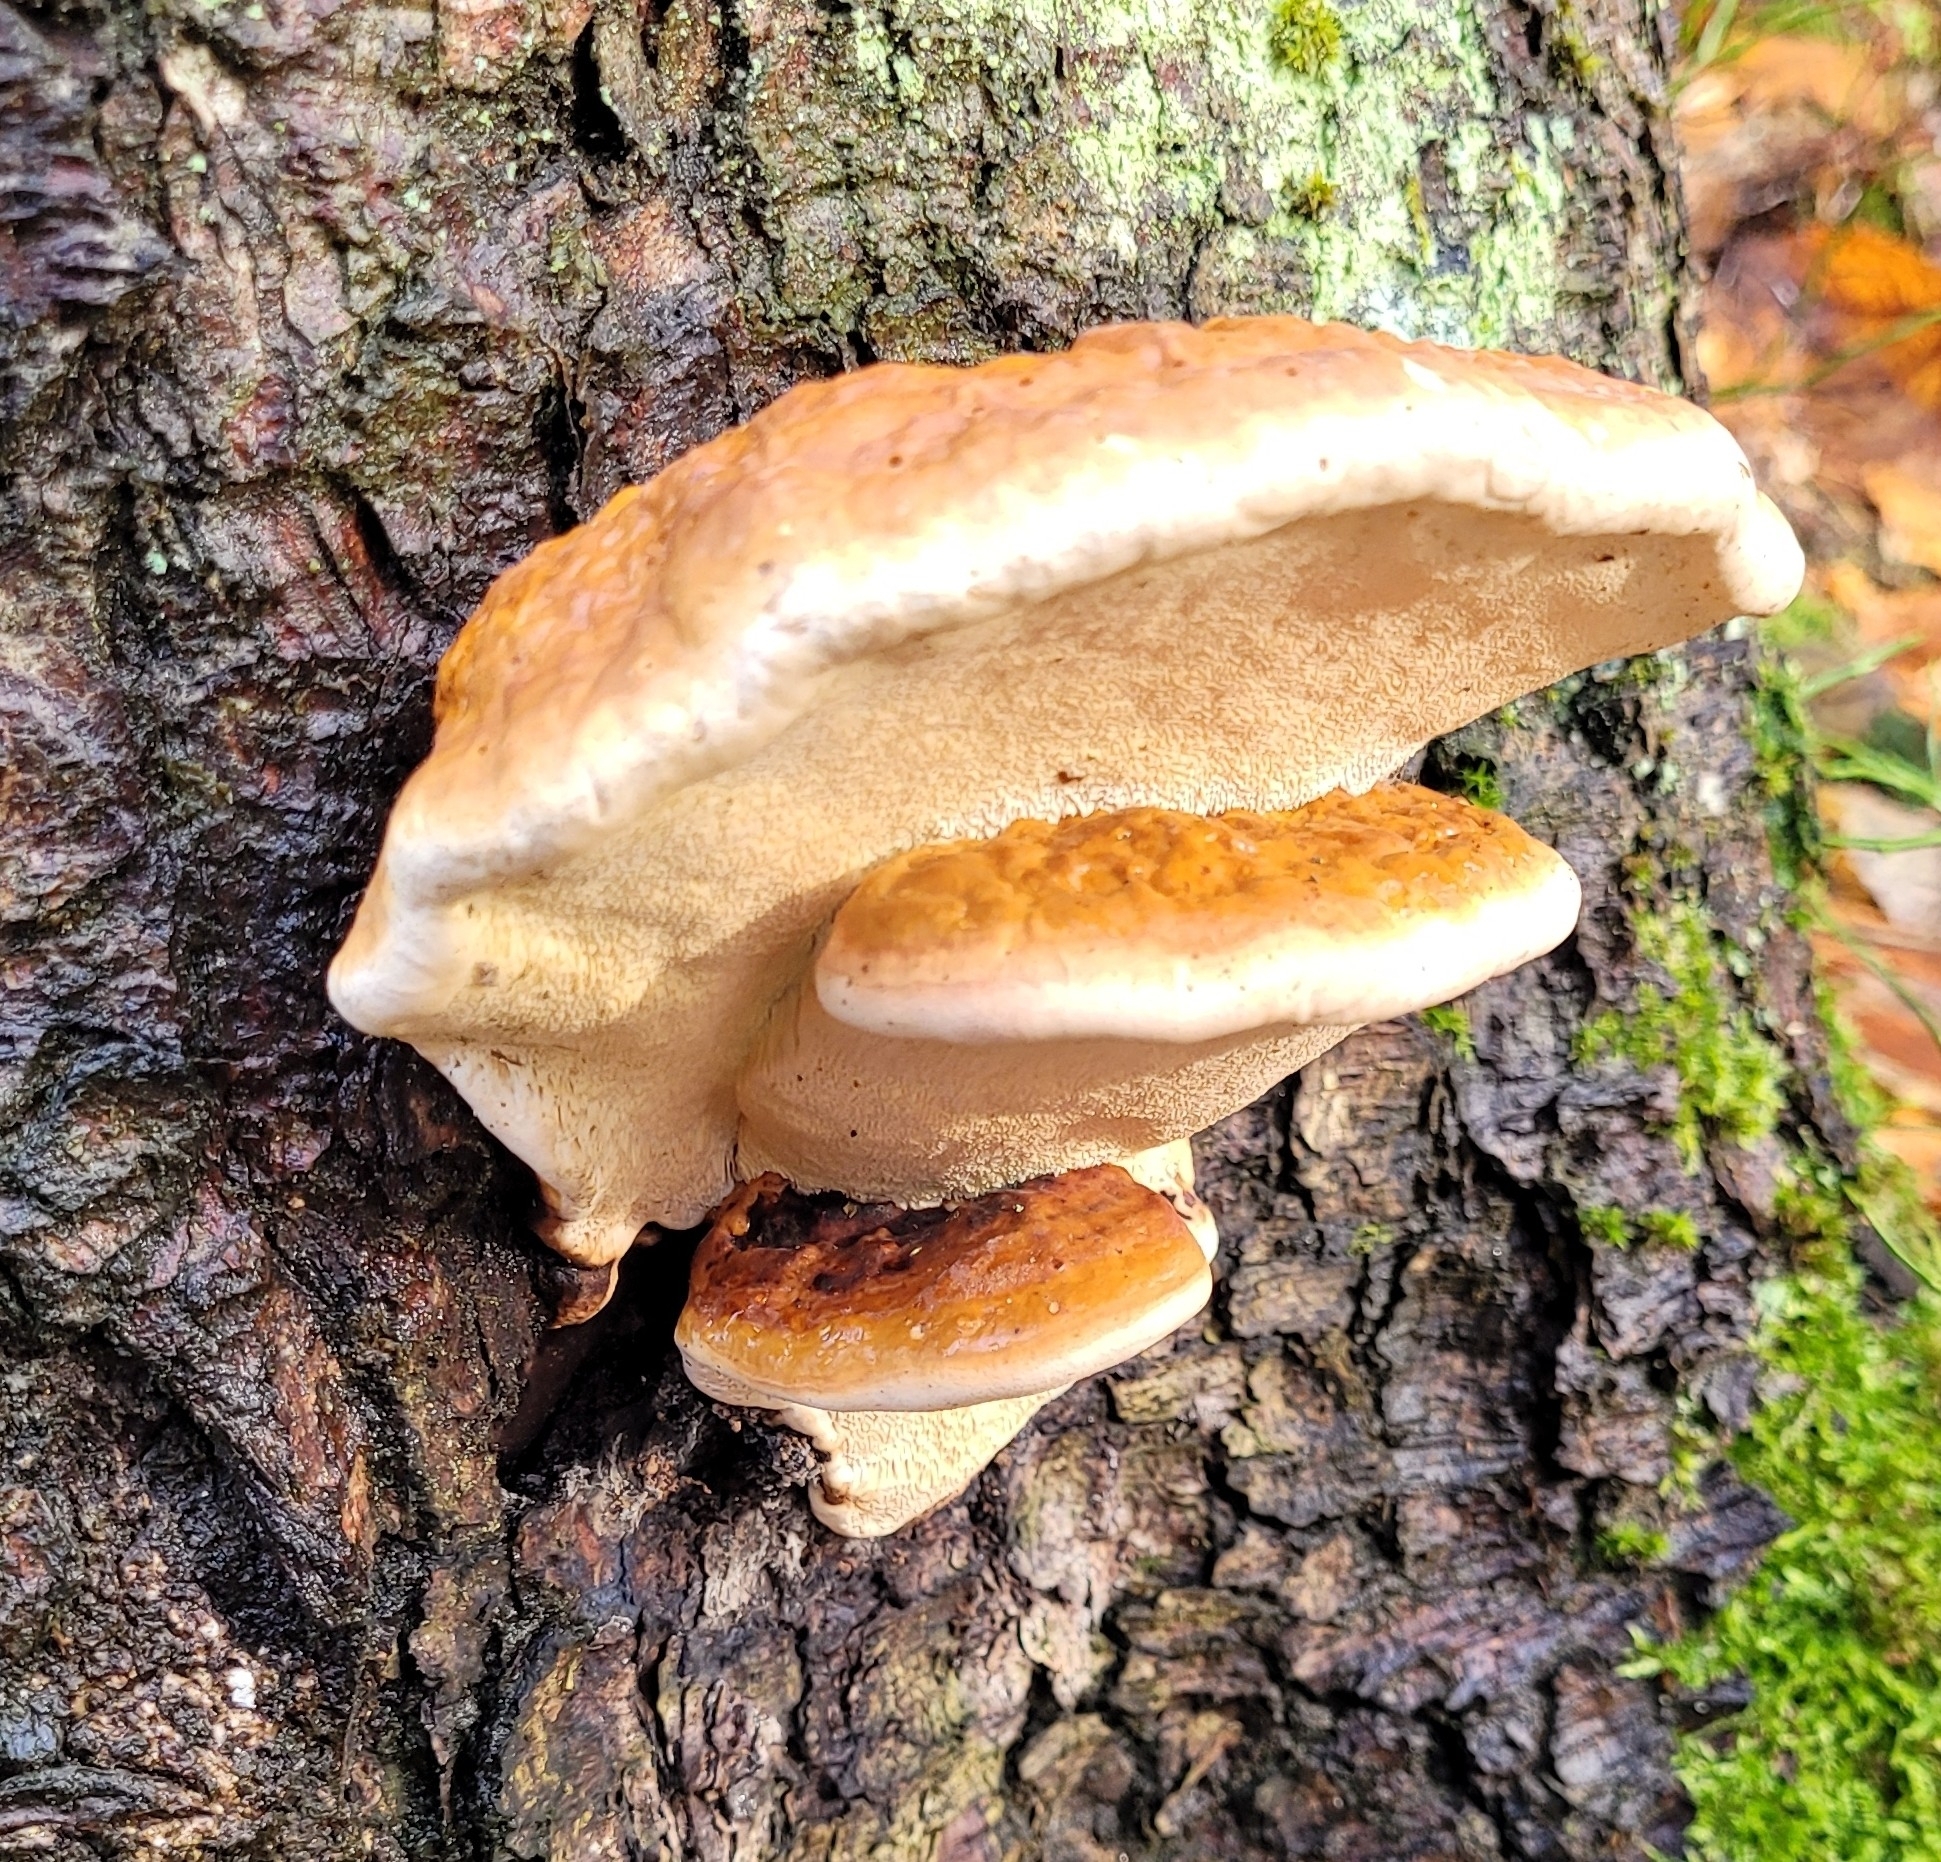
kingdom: Fungi
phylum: Basidiomycota
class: Agaricomycetes
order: Polyporales
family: Fomitopsidaceae
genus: Fomitopsis
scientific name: Fomitopsis pinicola
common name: Red-belted bracket
